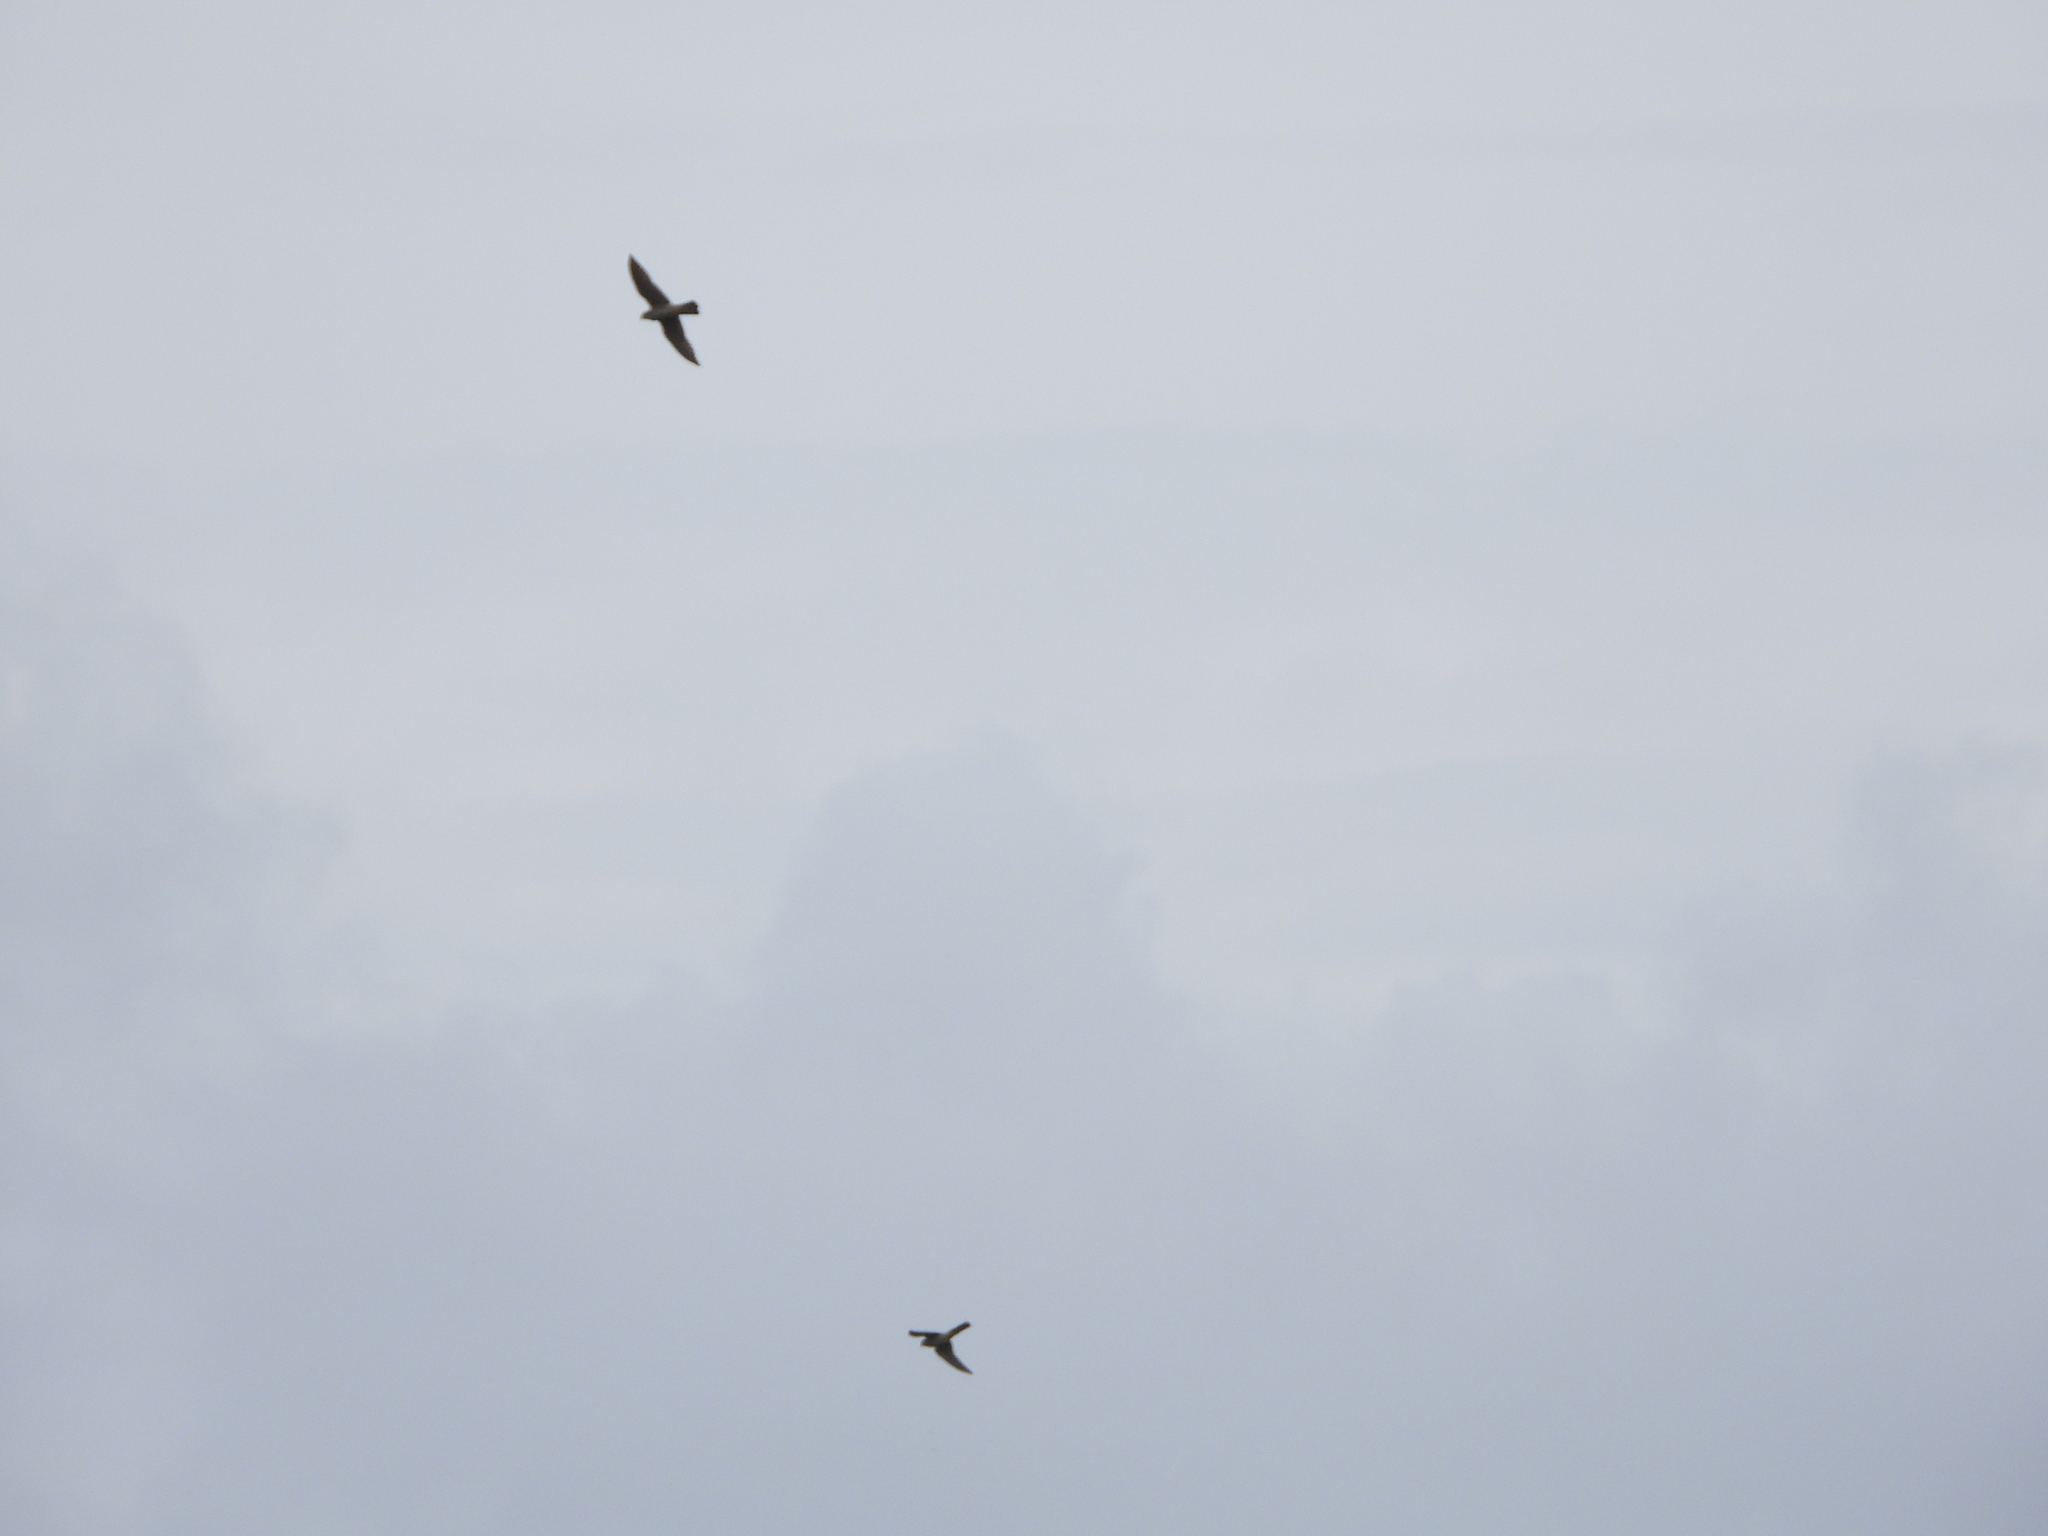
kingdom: Animalia
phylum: Chordata
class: Aves
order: Falconiformes
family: Falconidae
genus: Falco
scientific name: Falco columbarius
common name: Merlin
